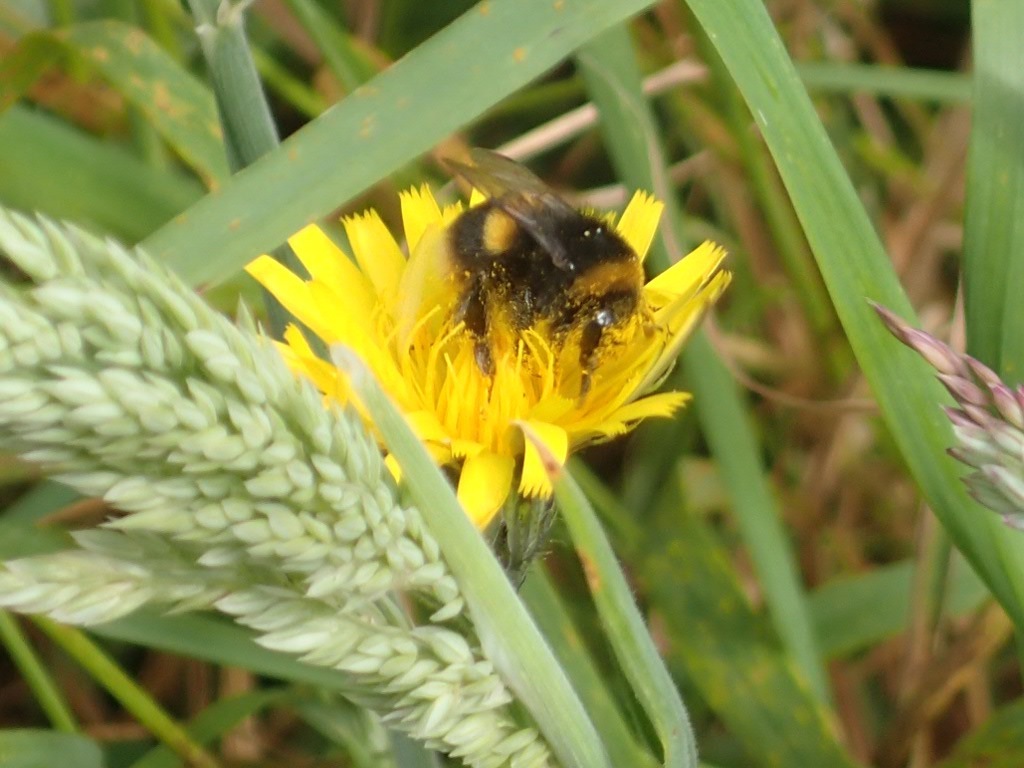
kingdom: Plantae
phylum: Tracheophyta
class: Magnoliopsida
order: Asterales
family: Asteraceae
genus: Hypochaeris
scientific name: Hypochaeris radicata
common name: Flatweed
